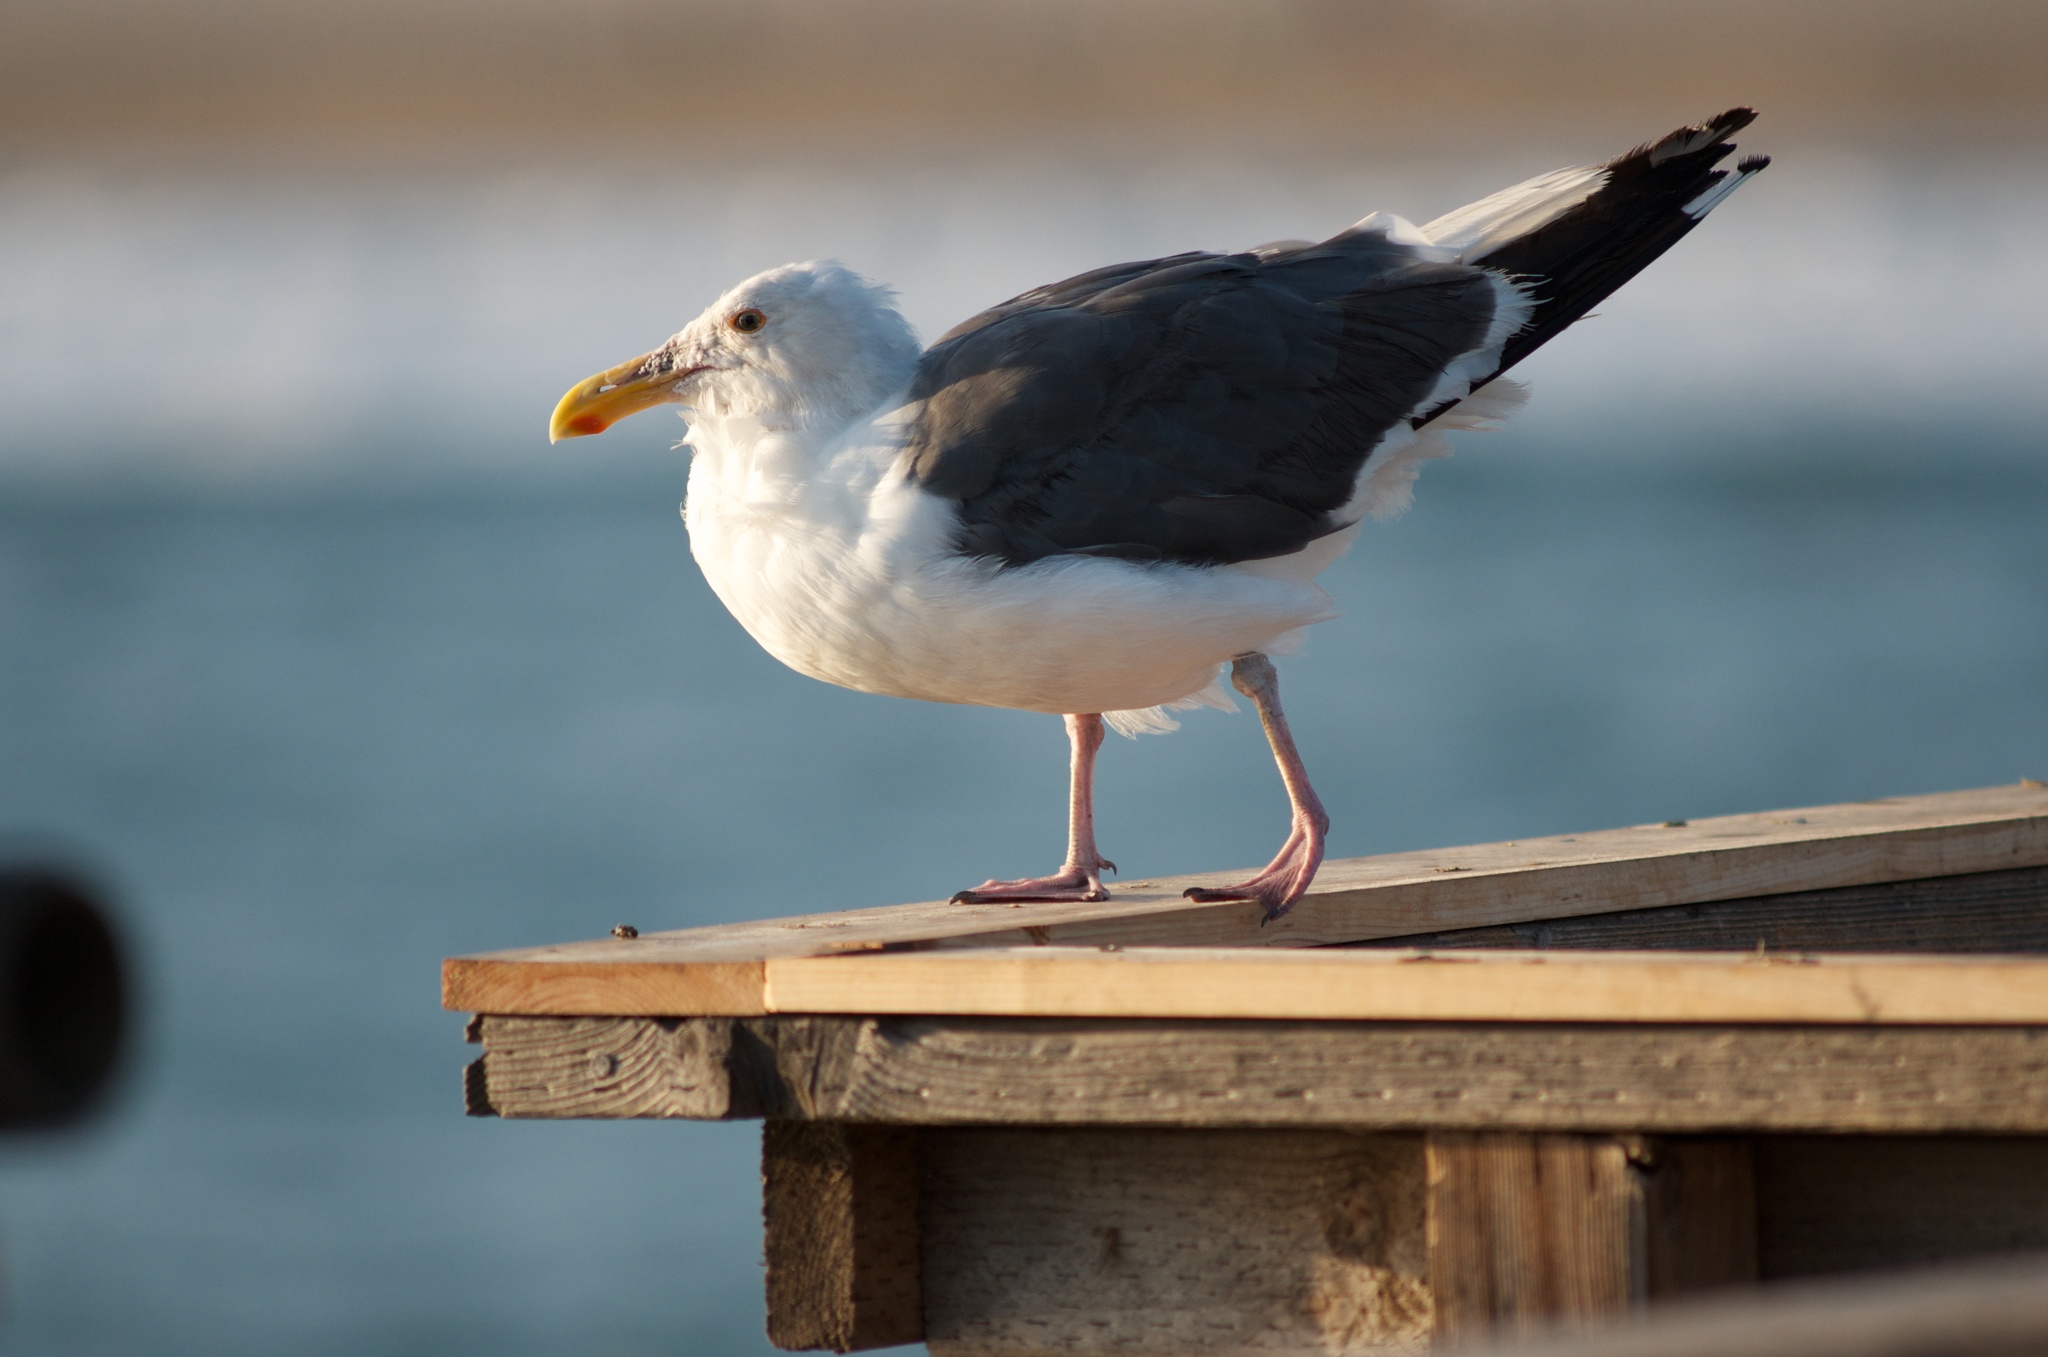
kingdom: Animalia
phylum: Chordata
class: Aves
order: Charadriiformes
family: Laridae
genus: Larus
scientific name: Larus occidentalis
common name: Western gull
